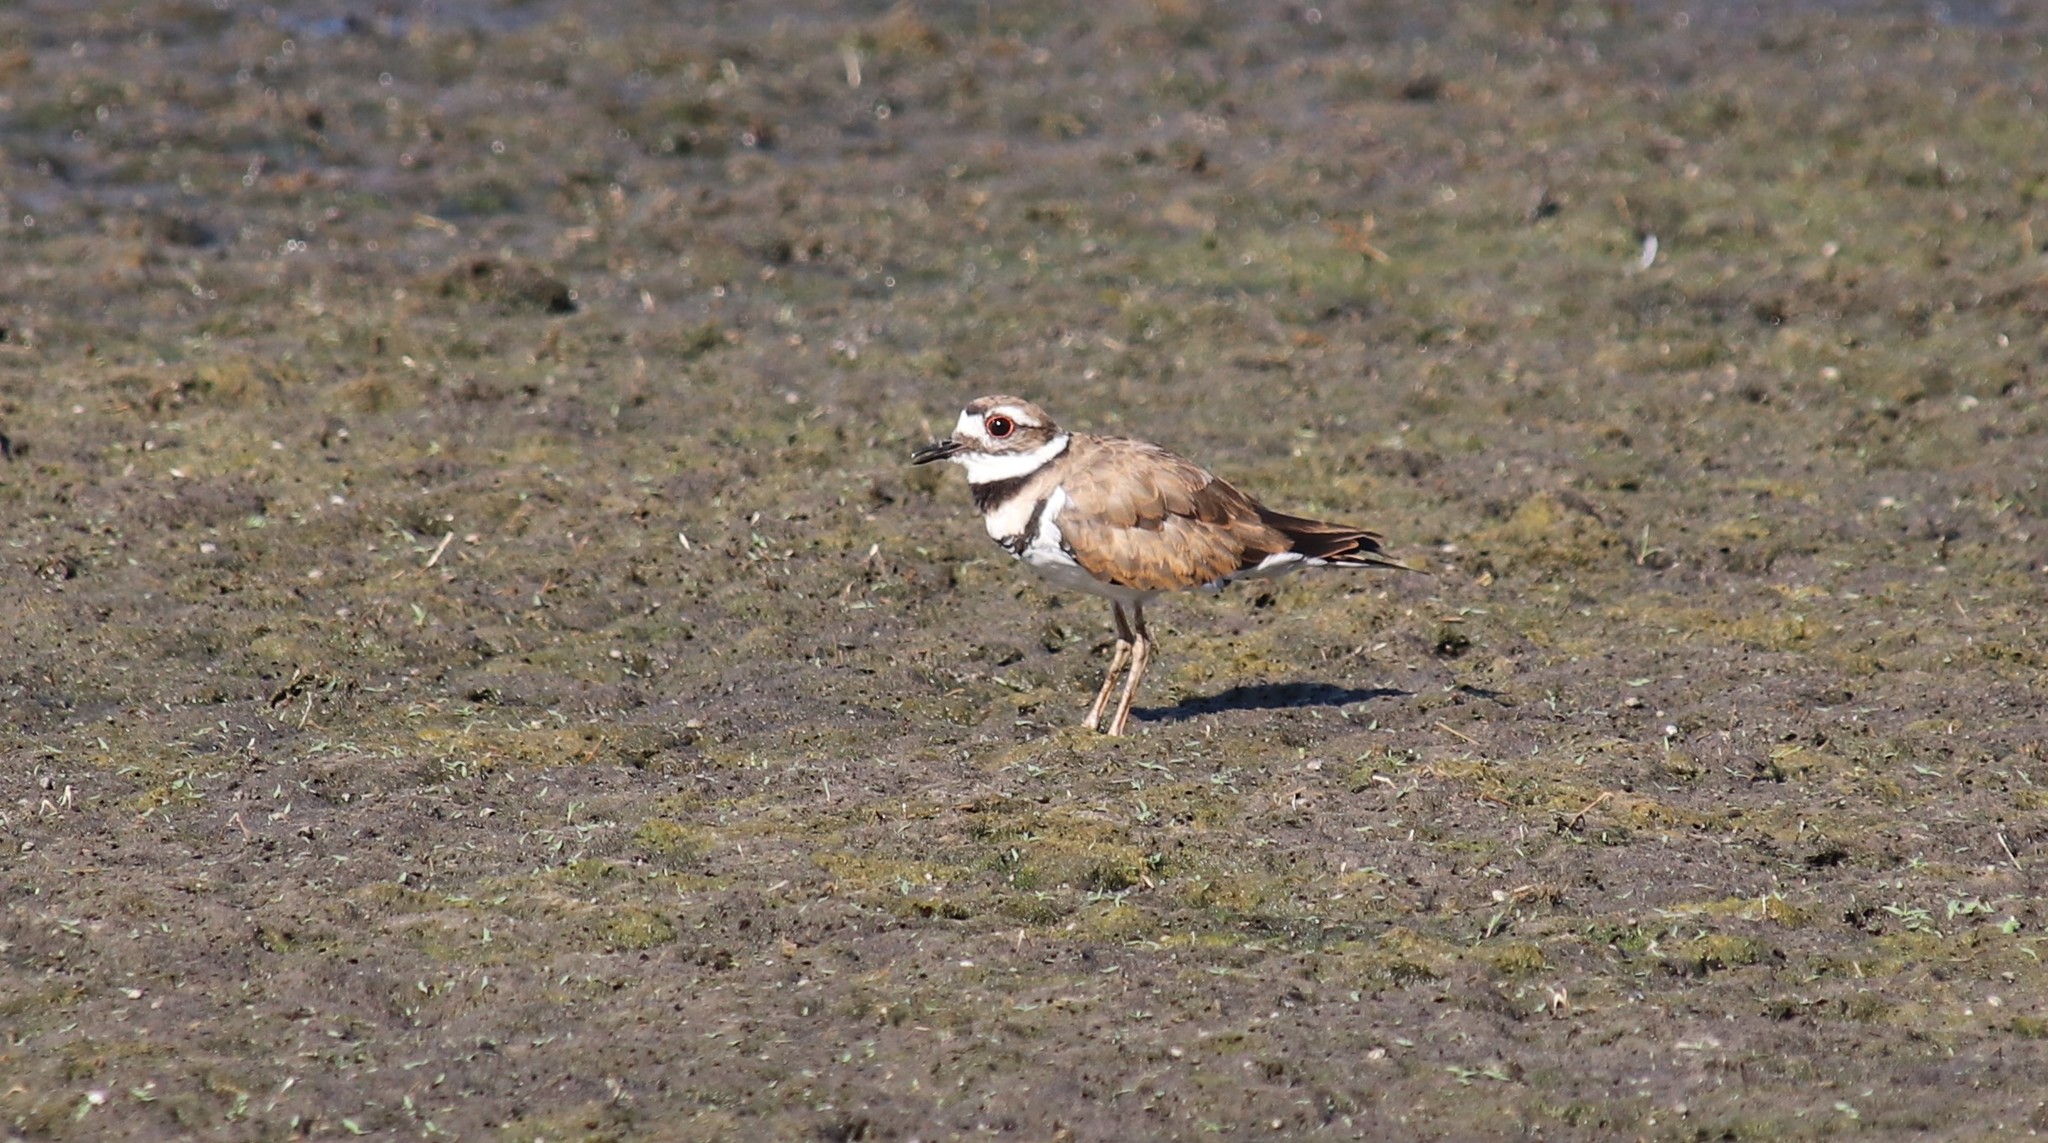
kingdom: Animalia
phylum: Chordata
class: Aves
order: Charadriiformes
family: Charadriidae
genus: Charadrius
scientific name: Charadrius vociferus
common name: Killdeer
